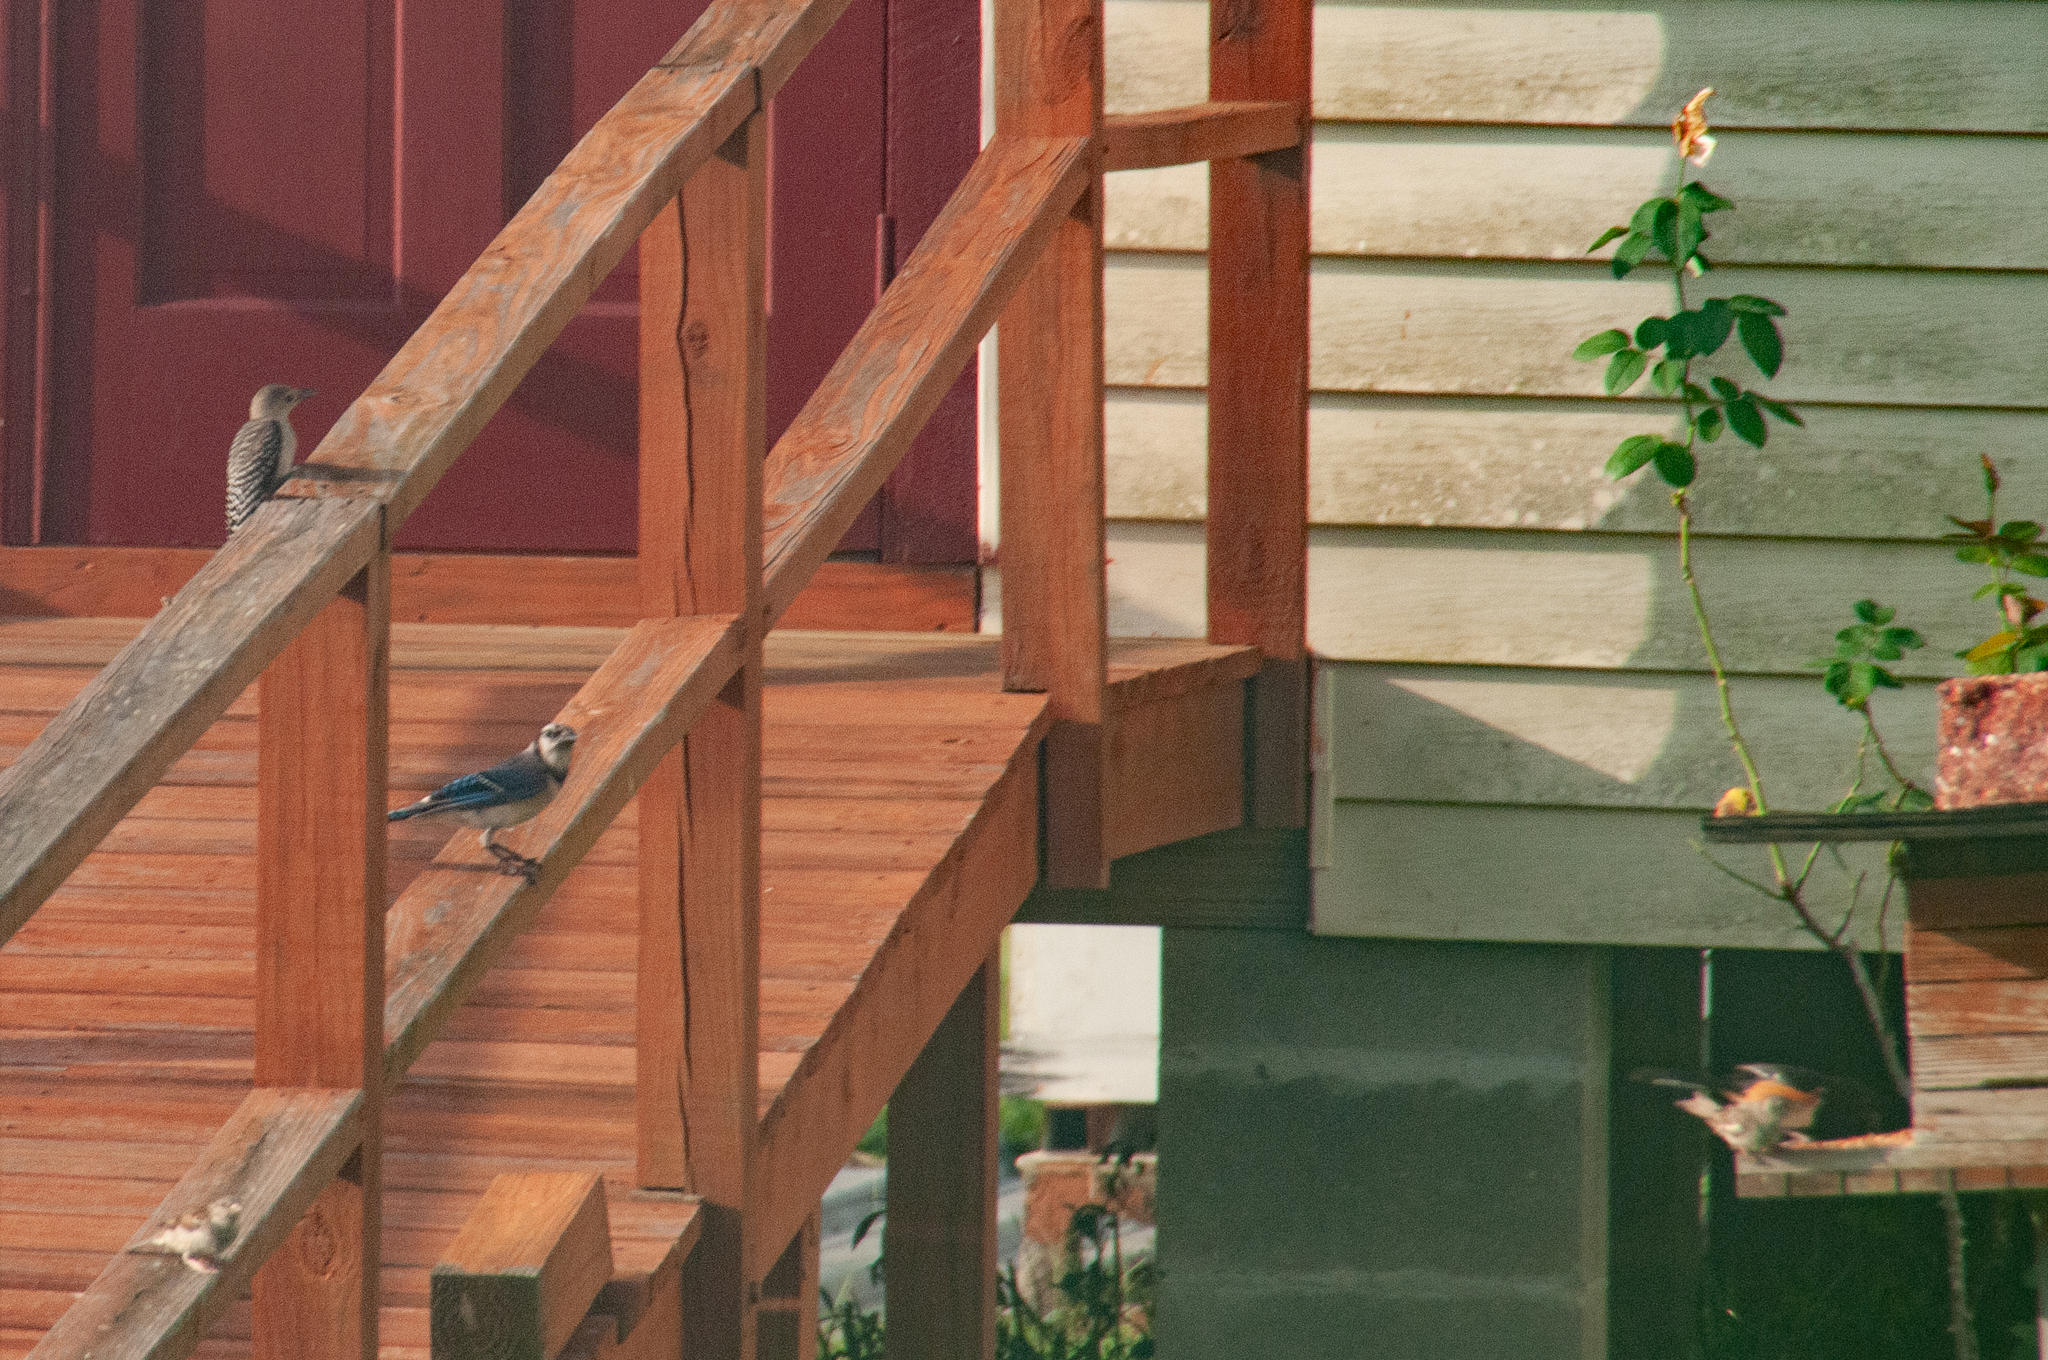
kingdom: Animalia
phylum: Chordata
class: Aves
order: Passeriformes
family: Corvidae
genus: Cyanocitta
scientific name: Cyanocitta cristata
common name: Blue jay
